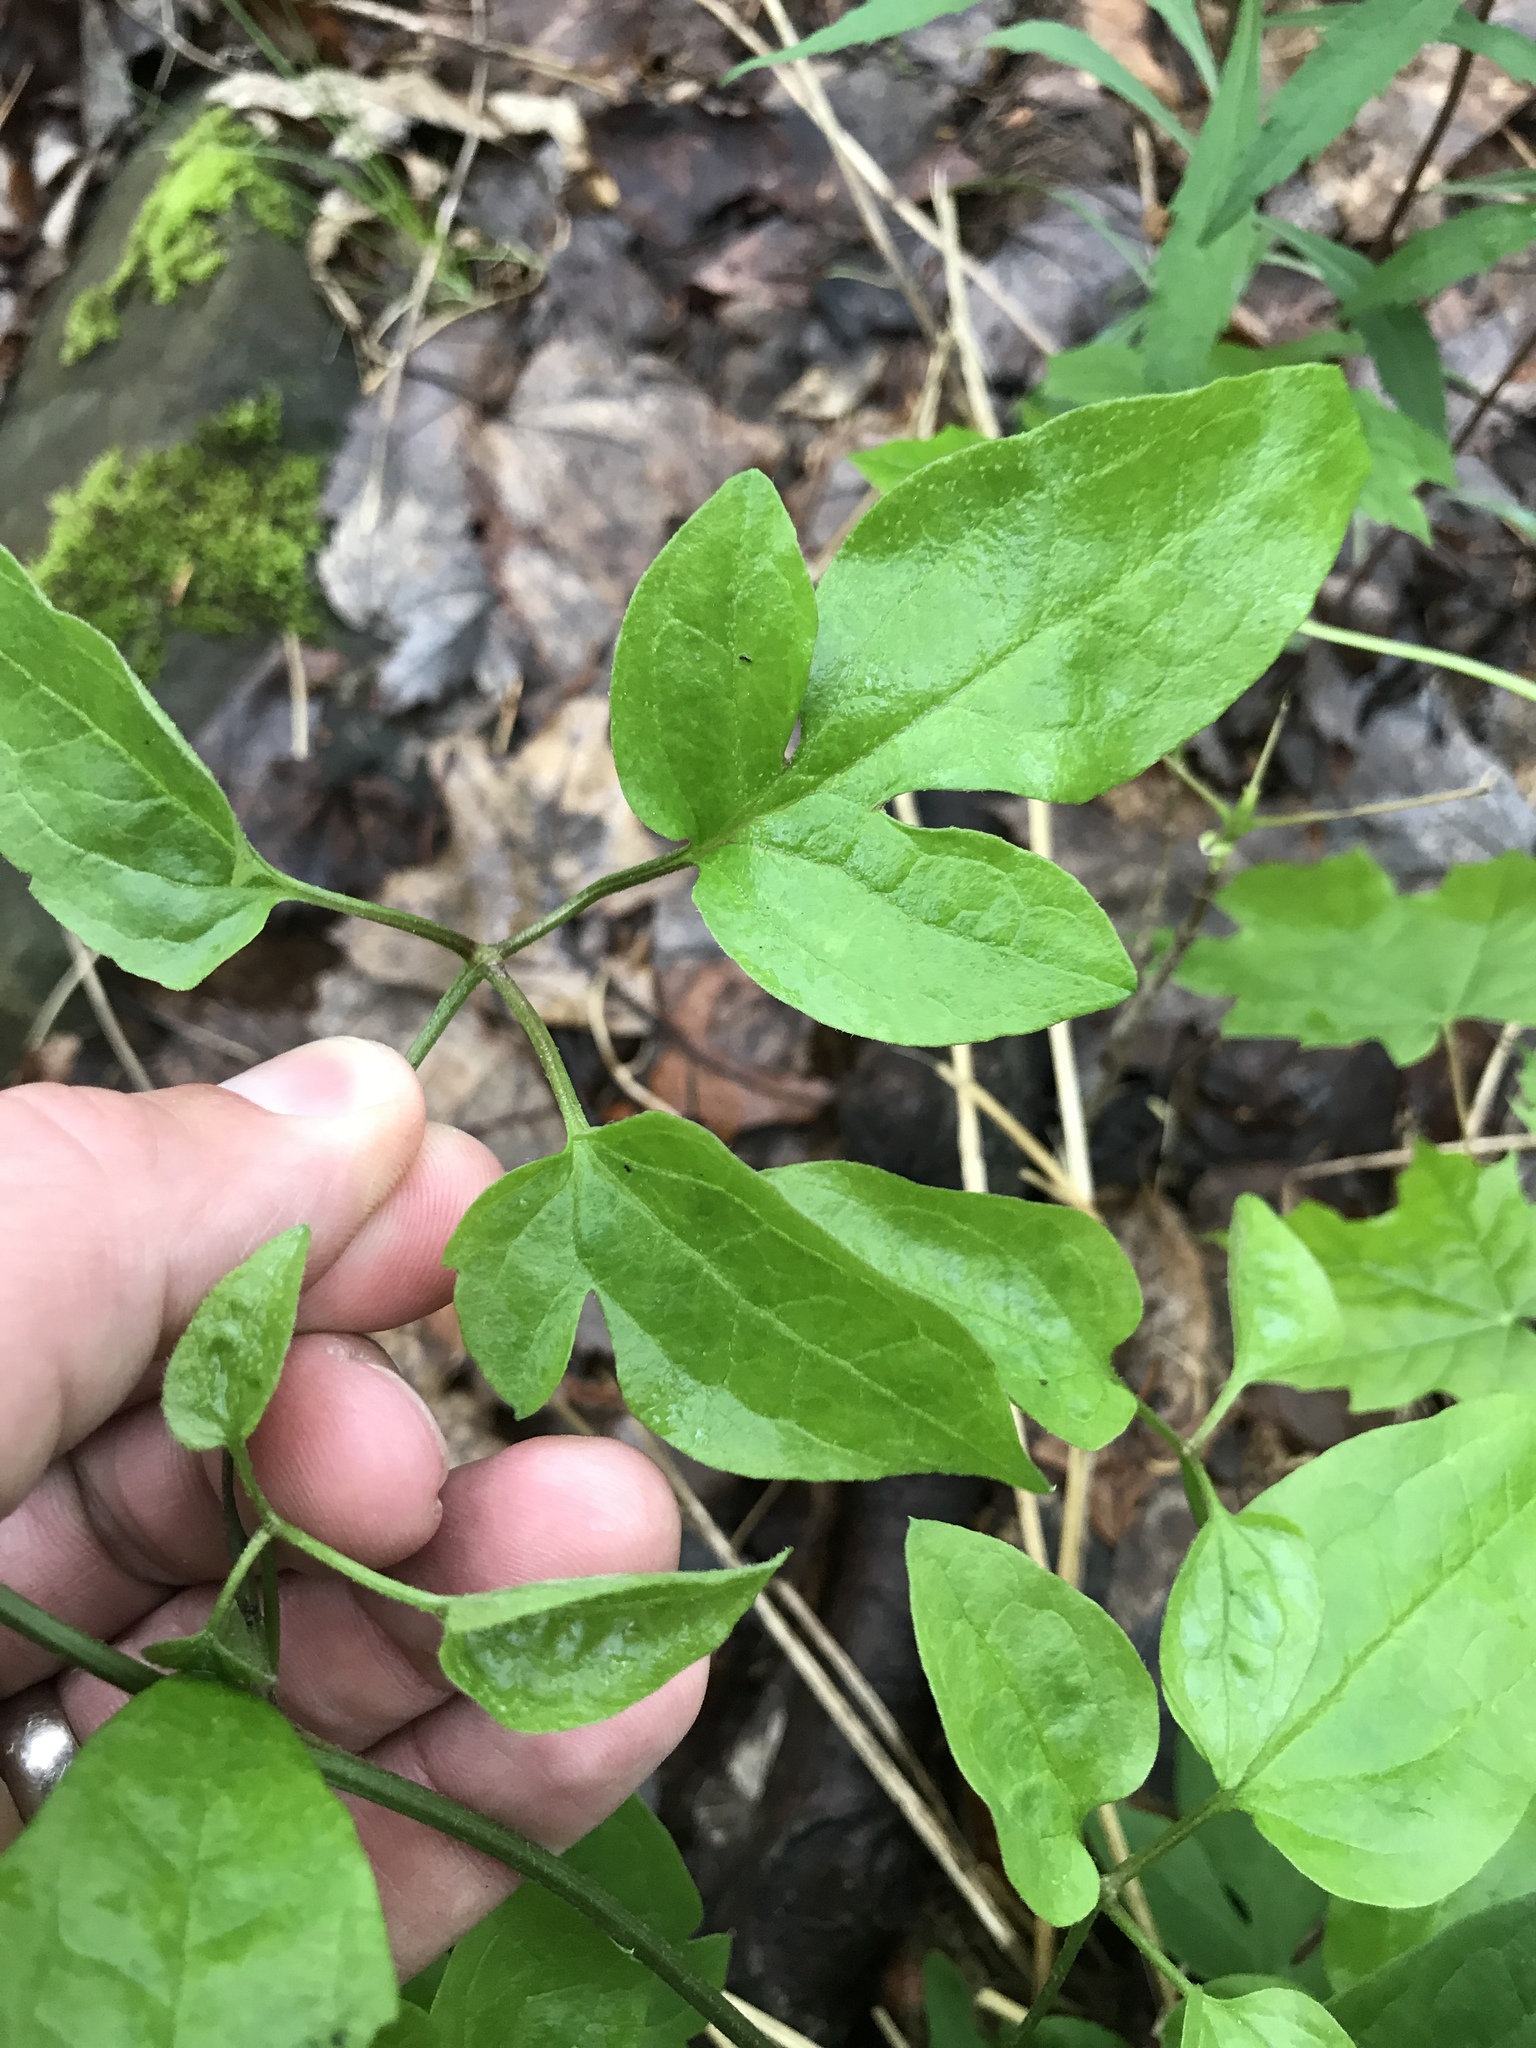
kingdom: Plantae
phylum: Tracheophyta
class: Magnoliopsida
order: Ranunculales
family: Ranunculaceae
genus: Clematis
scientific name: Clematis terniflora
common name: Sweet autumn clematis
